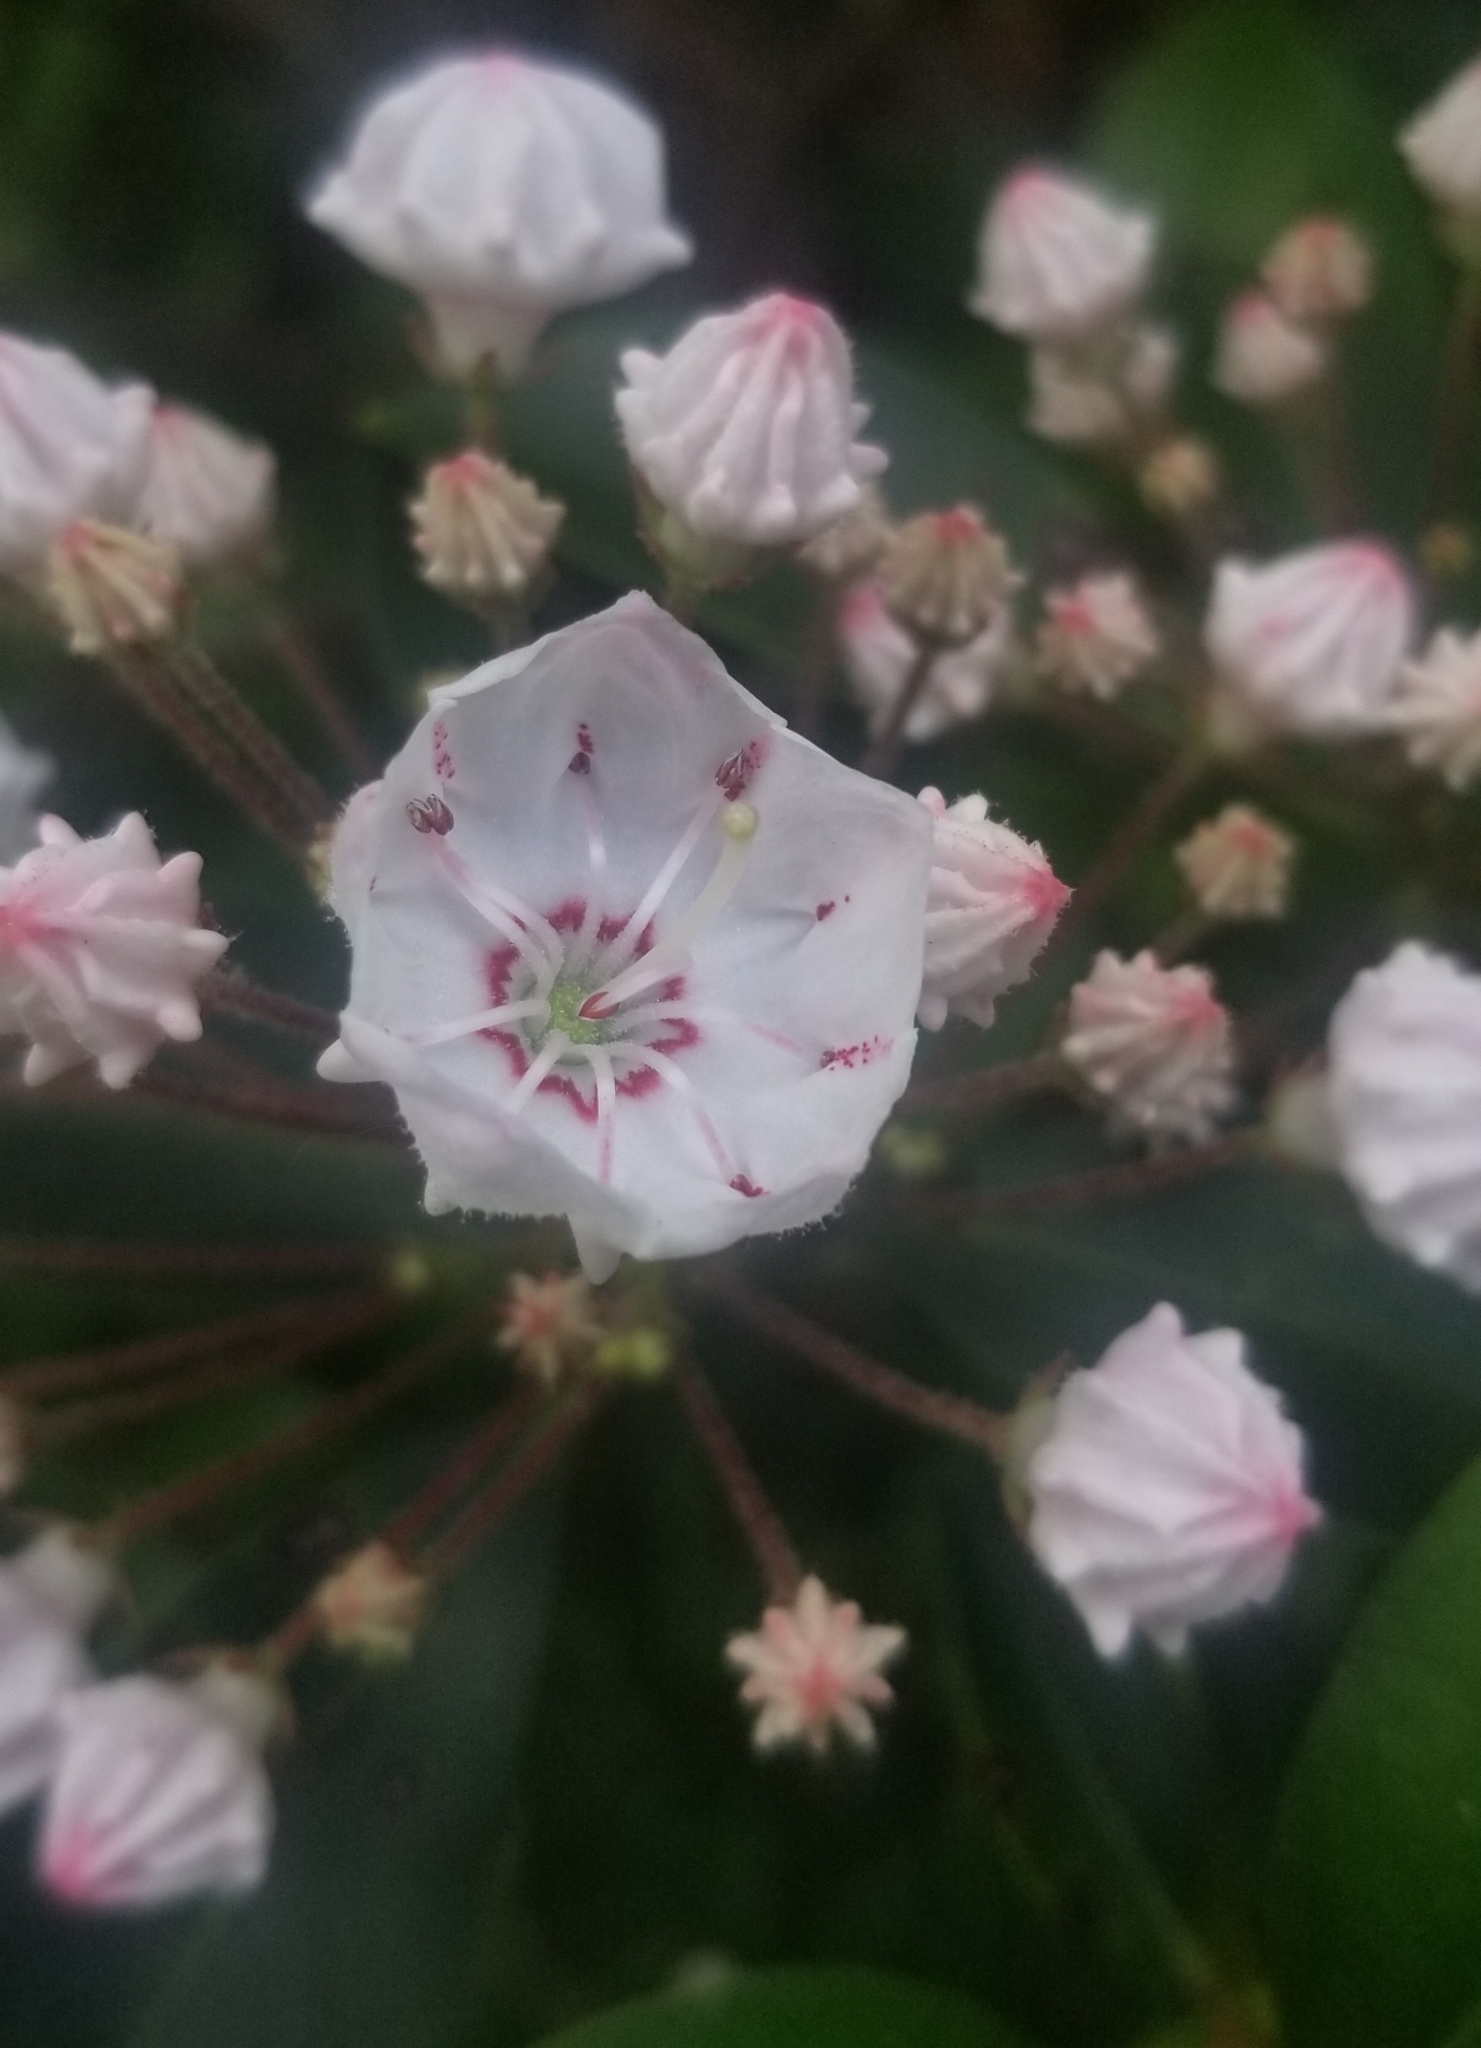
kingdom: Plantae
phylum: Tracheophyta
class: Magnoliopsida
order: Ericales
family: Ericaceae
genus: Kalmia
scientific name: Kalmia latifolia
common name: Mountain-laurel
